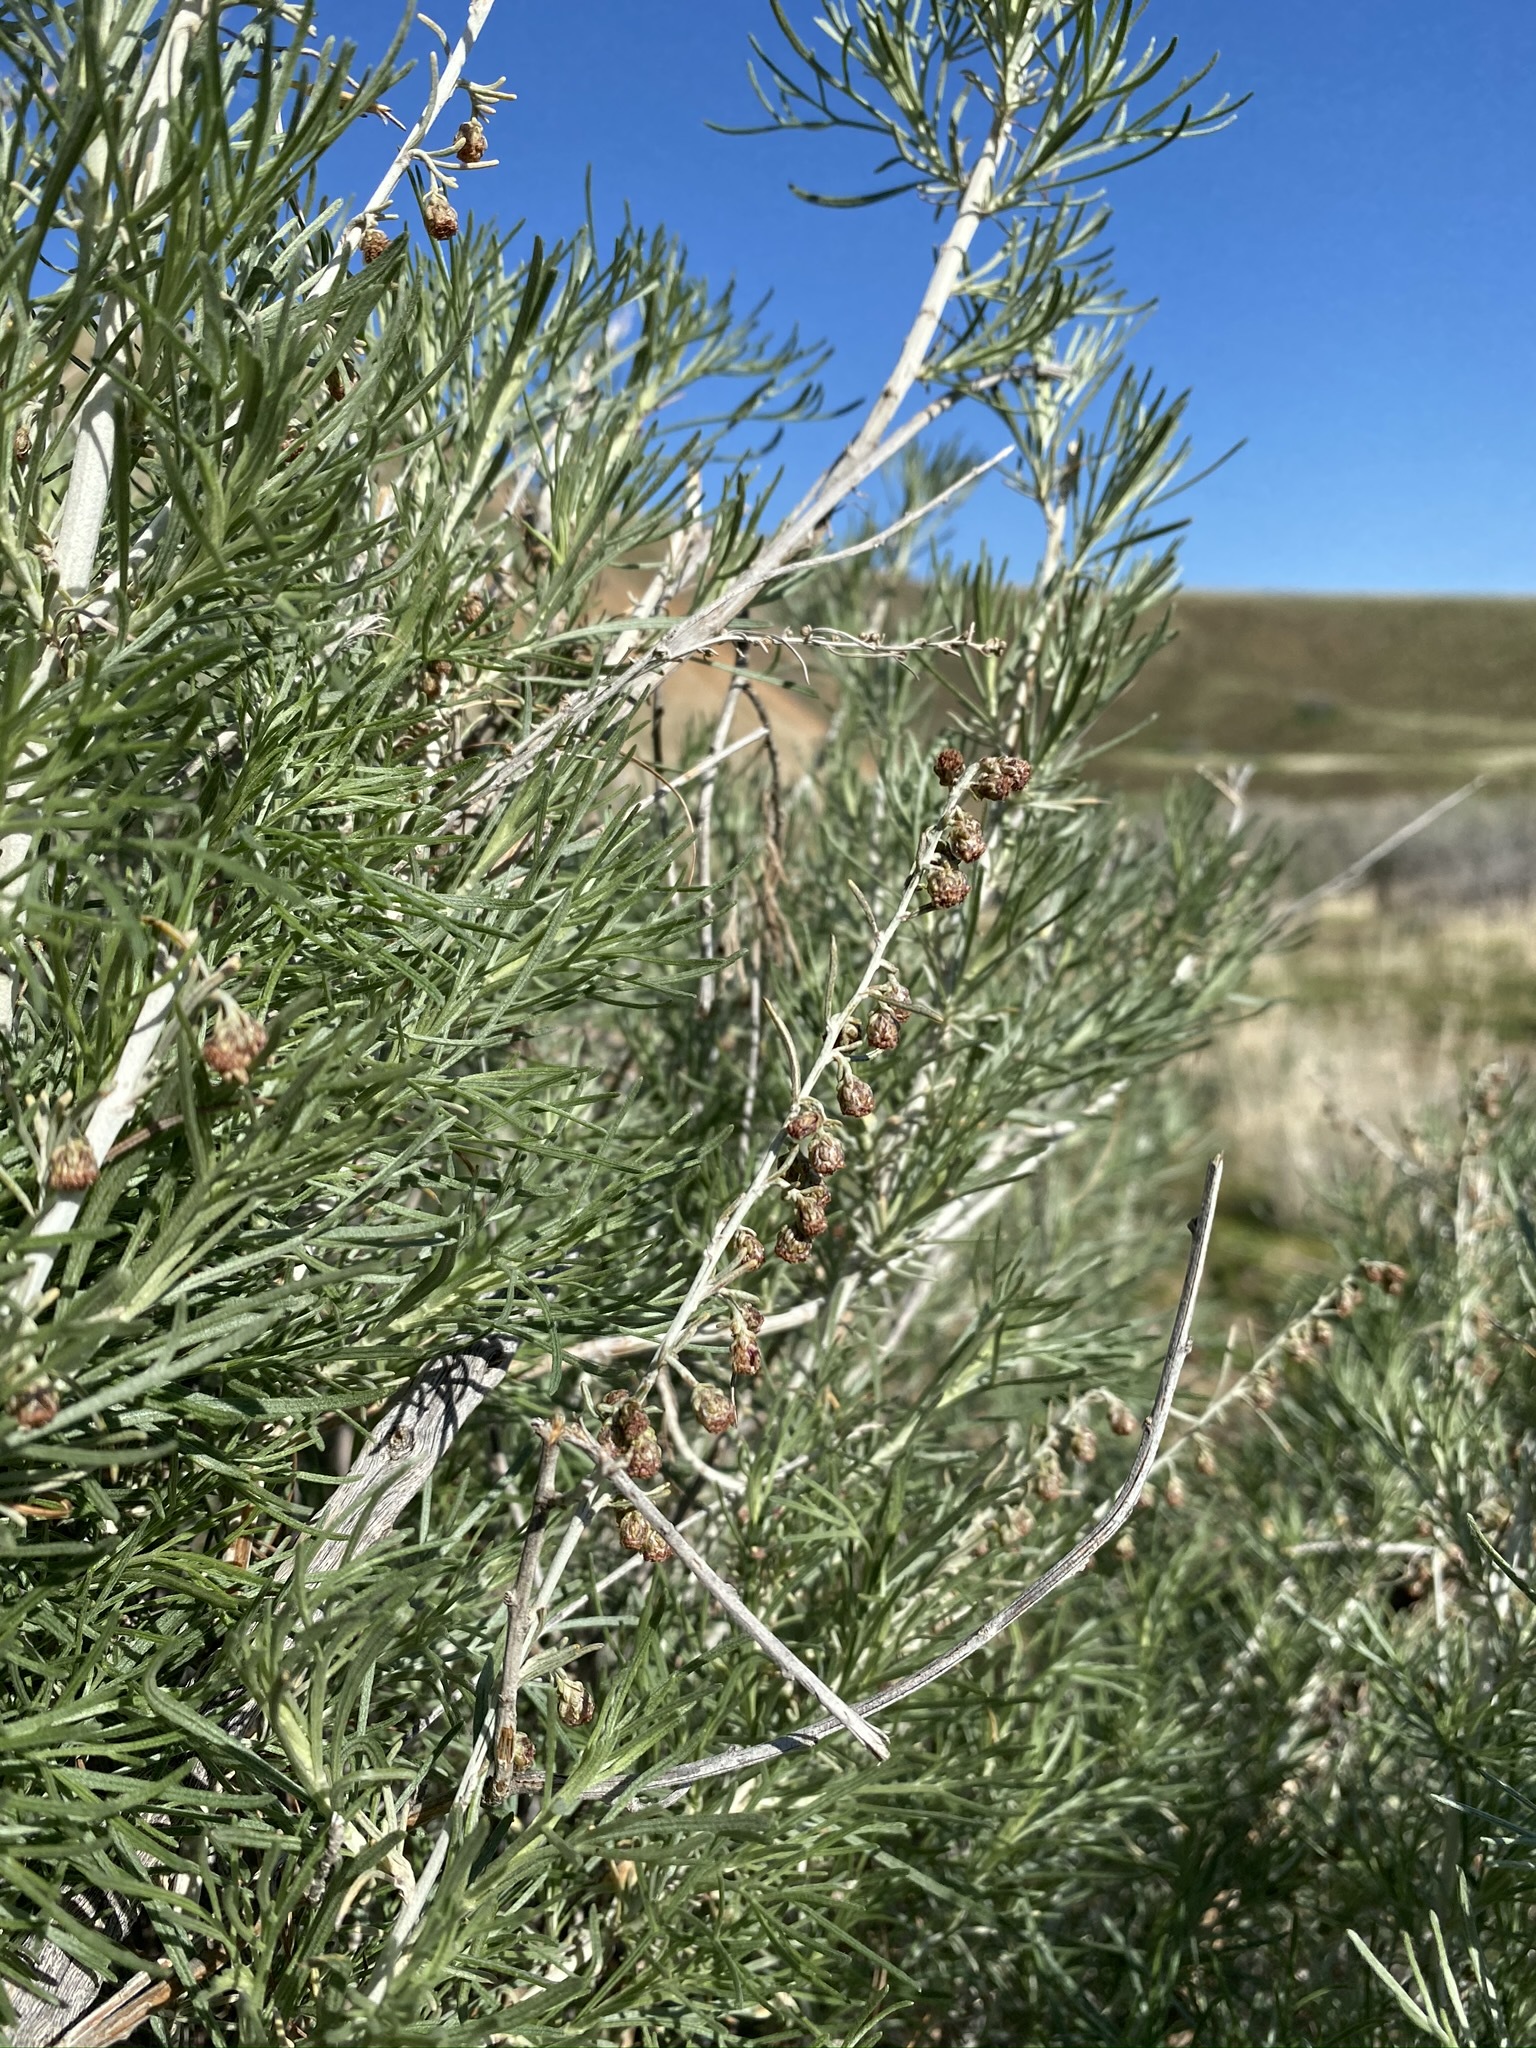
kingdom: Plantae
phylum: Tracheophyta
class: Magnoliopsida
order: Asterales
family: Asteraceae
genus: Artemisia
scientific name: Artemisia californica
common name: California sagebrush
